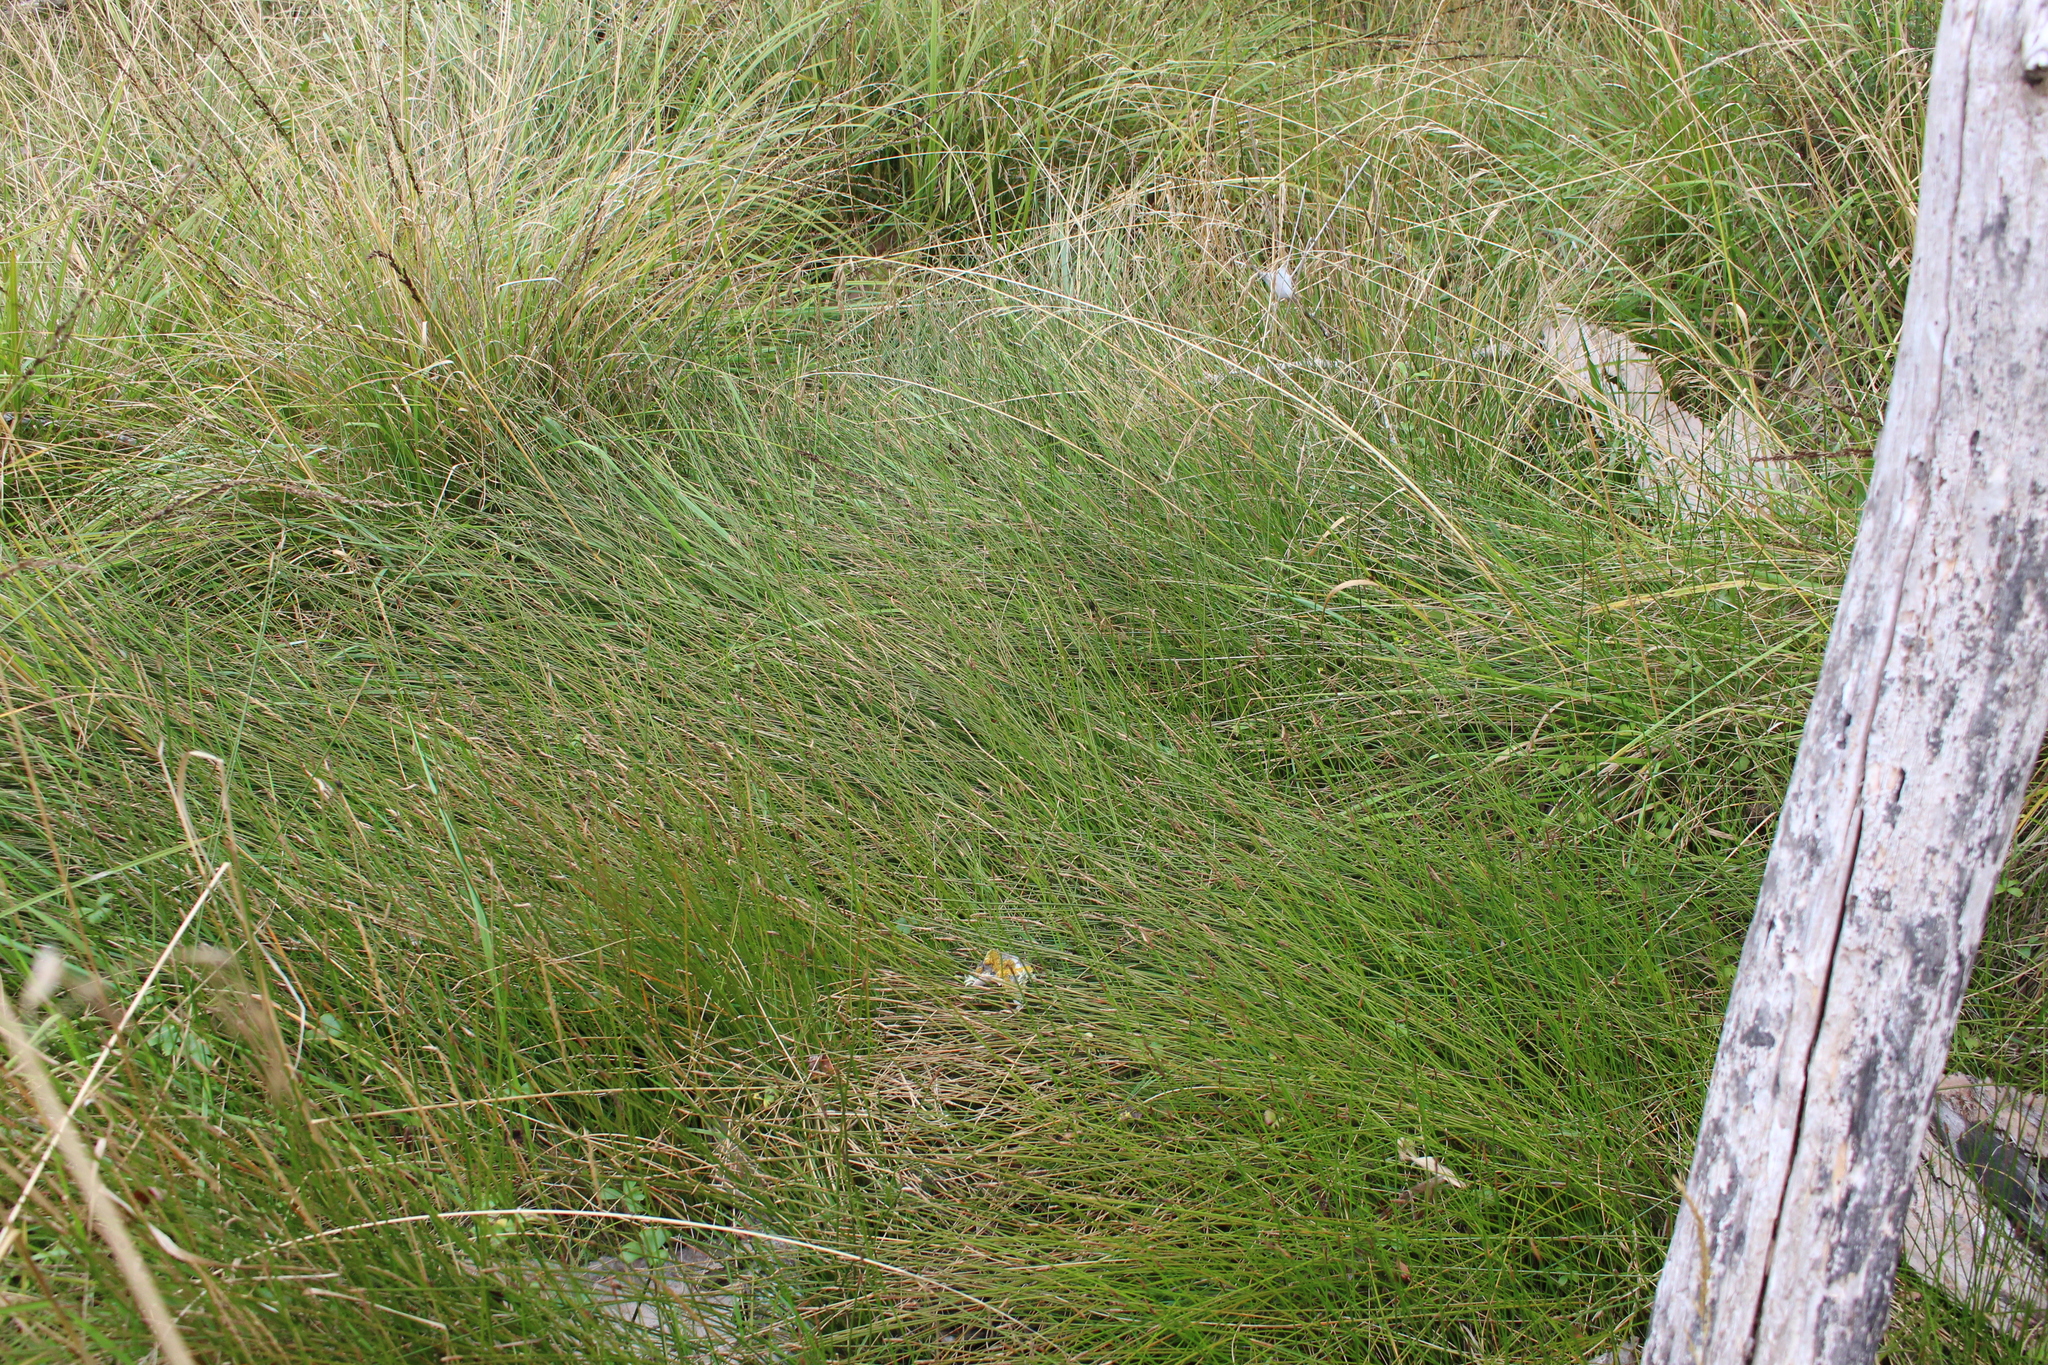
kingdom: Plantae
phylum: Tracheophyta
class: Liliopsida
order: Poales
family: Cyperaceae
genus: Eleocharis
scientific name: Eleocharis acuta
